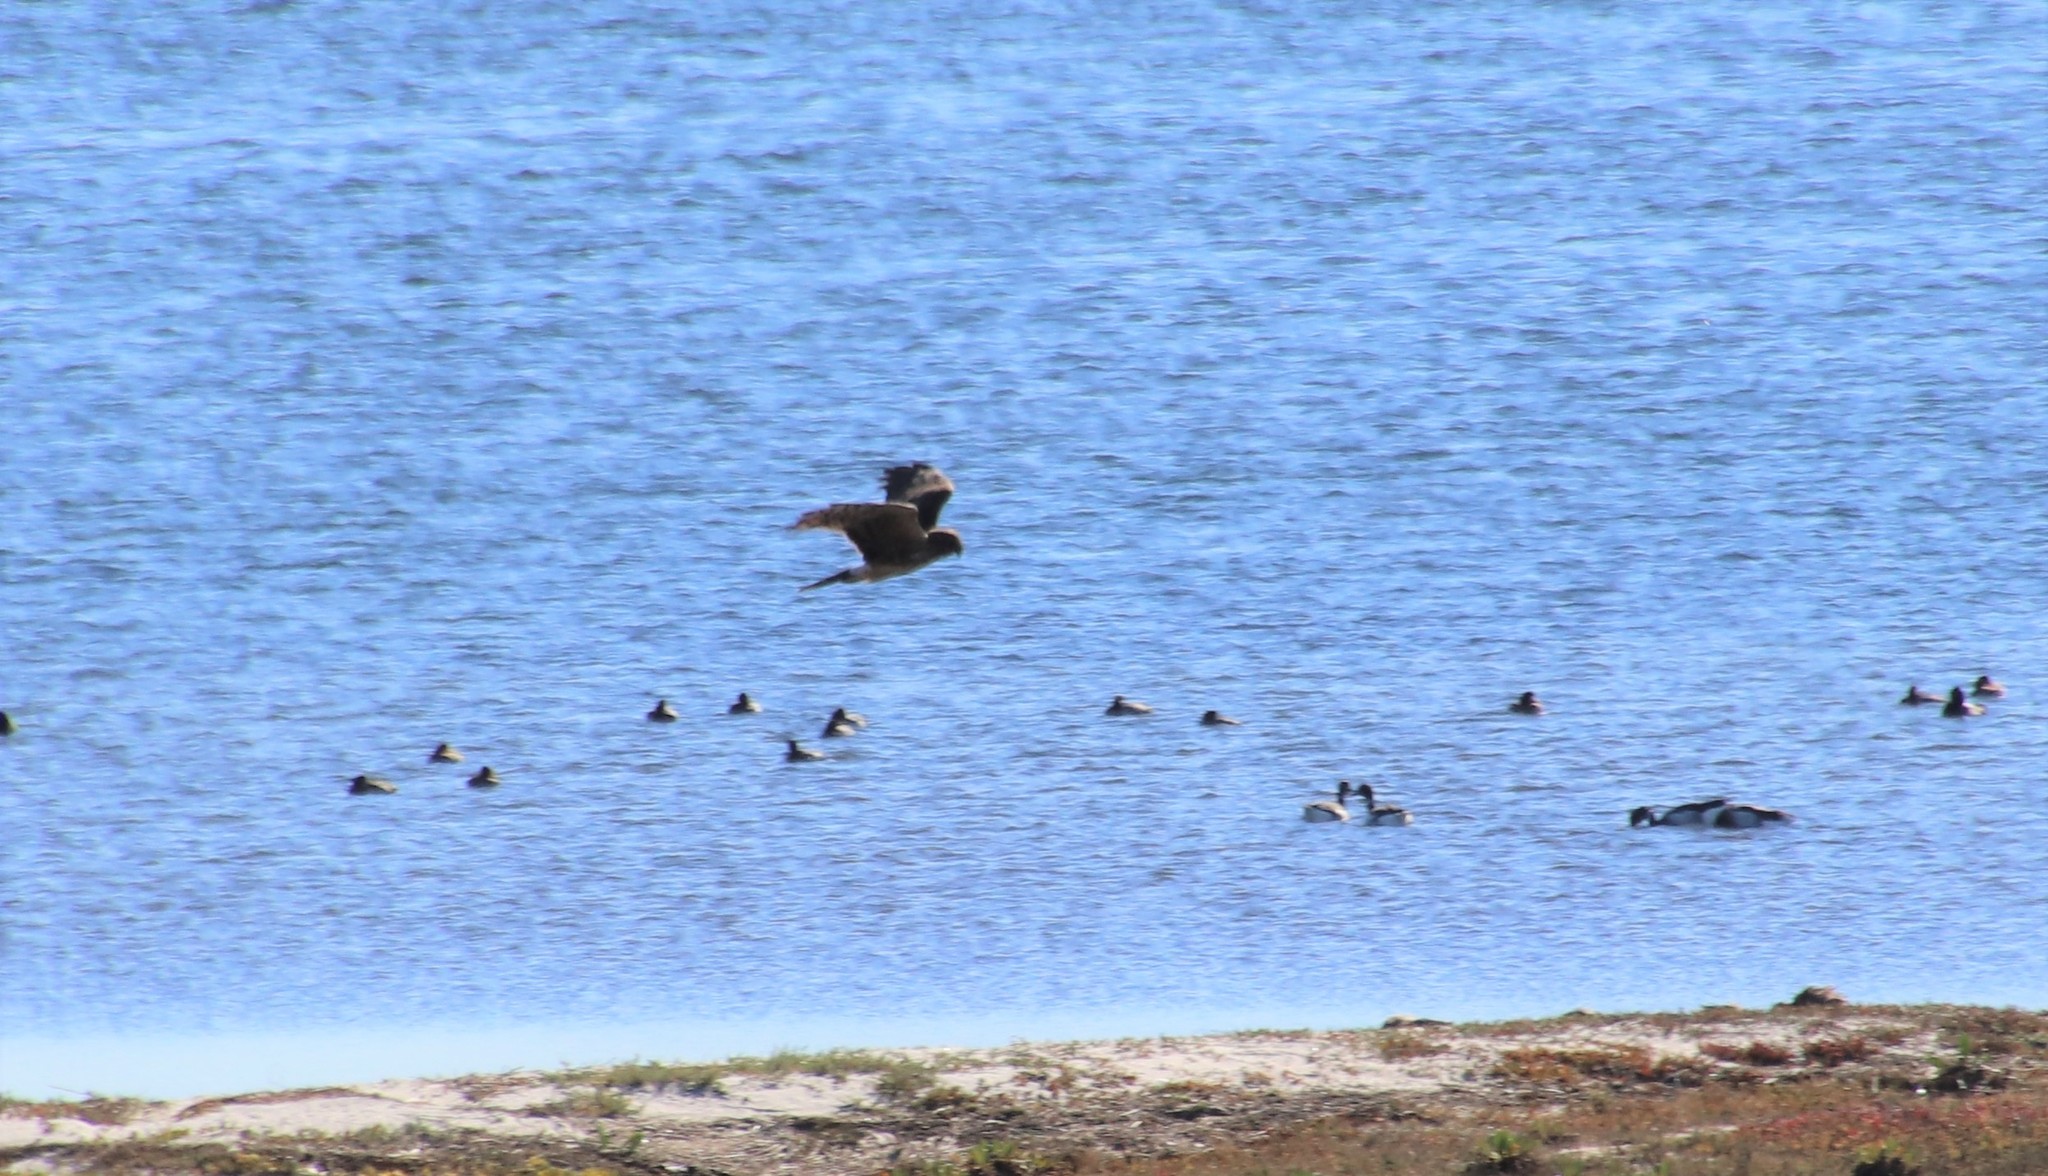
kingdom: Animalia
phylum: Chordata
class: Aves
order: Accipitriformes
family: Accipitridae
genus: Circus
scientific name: Circus cyaneus
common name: Hen harrier
